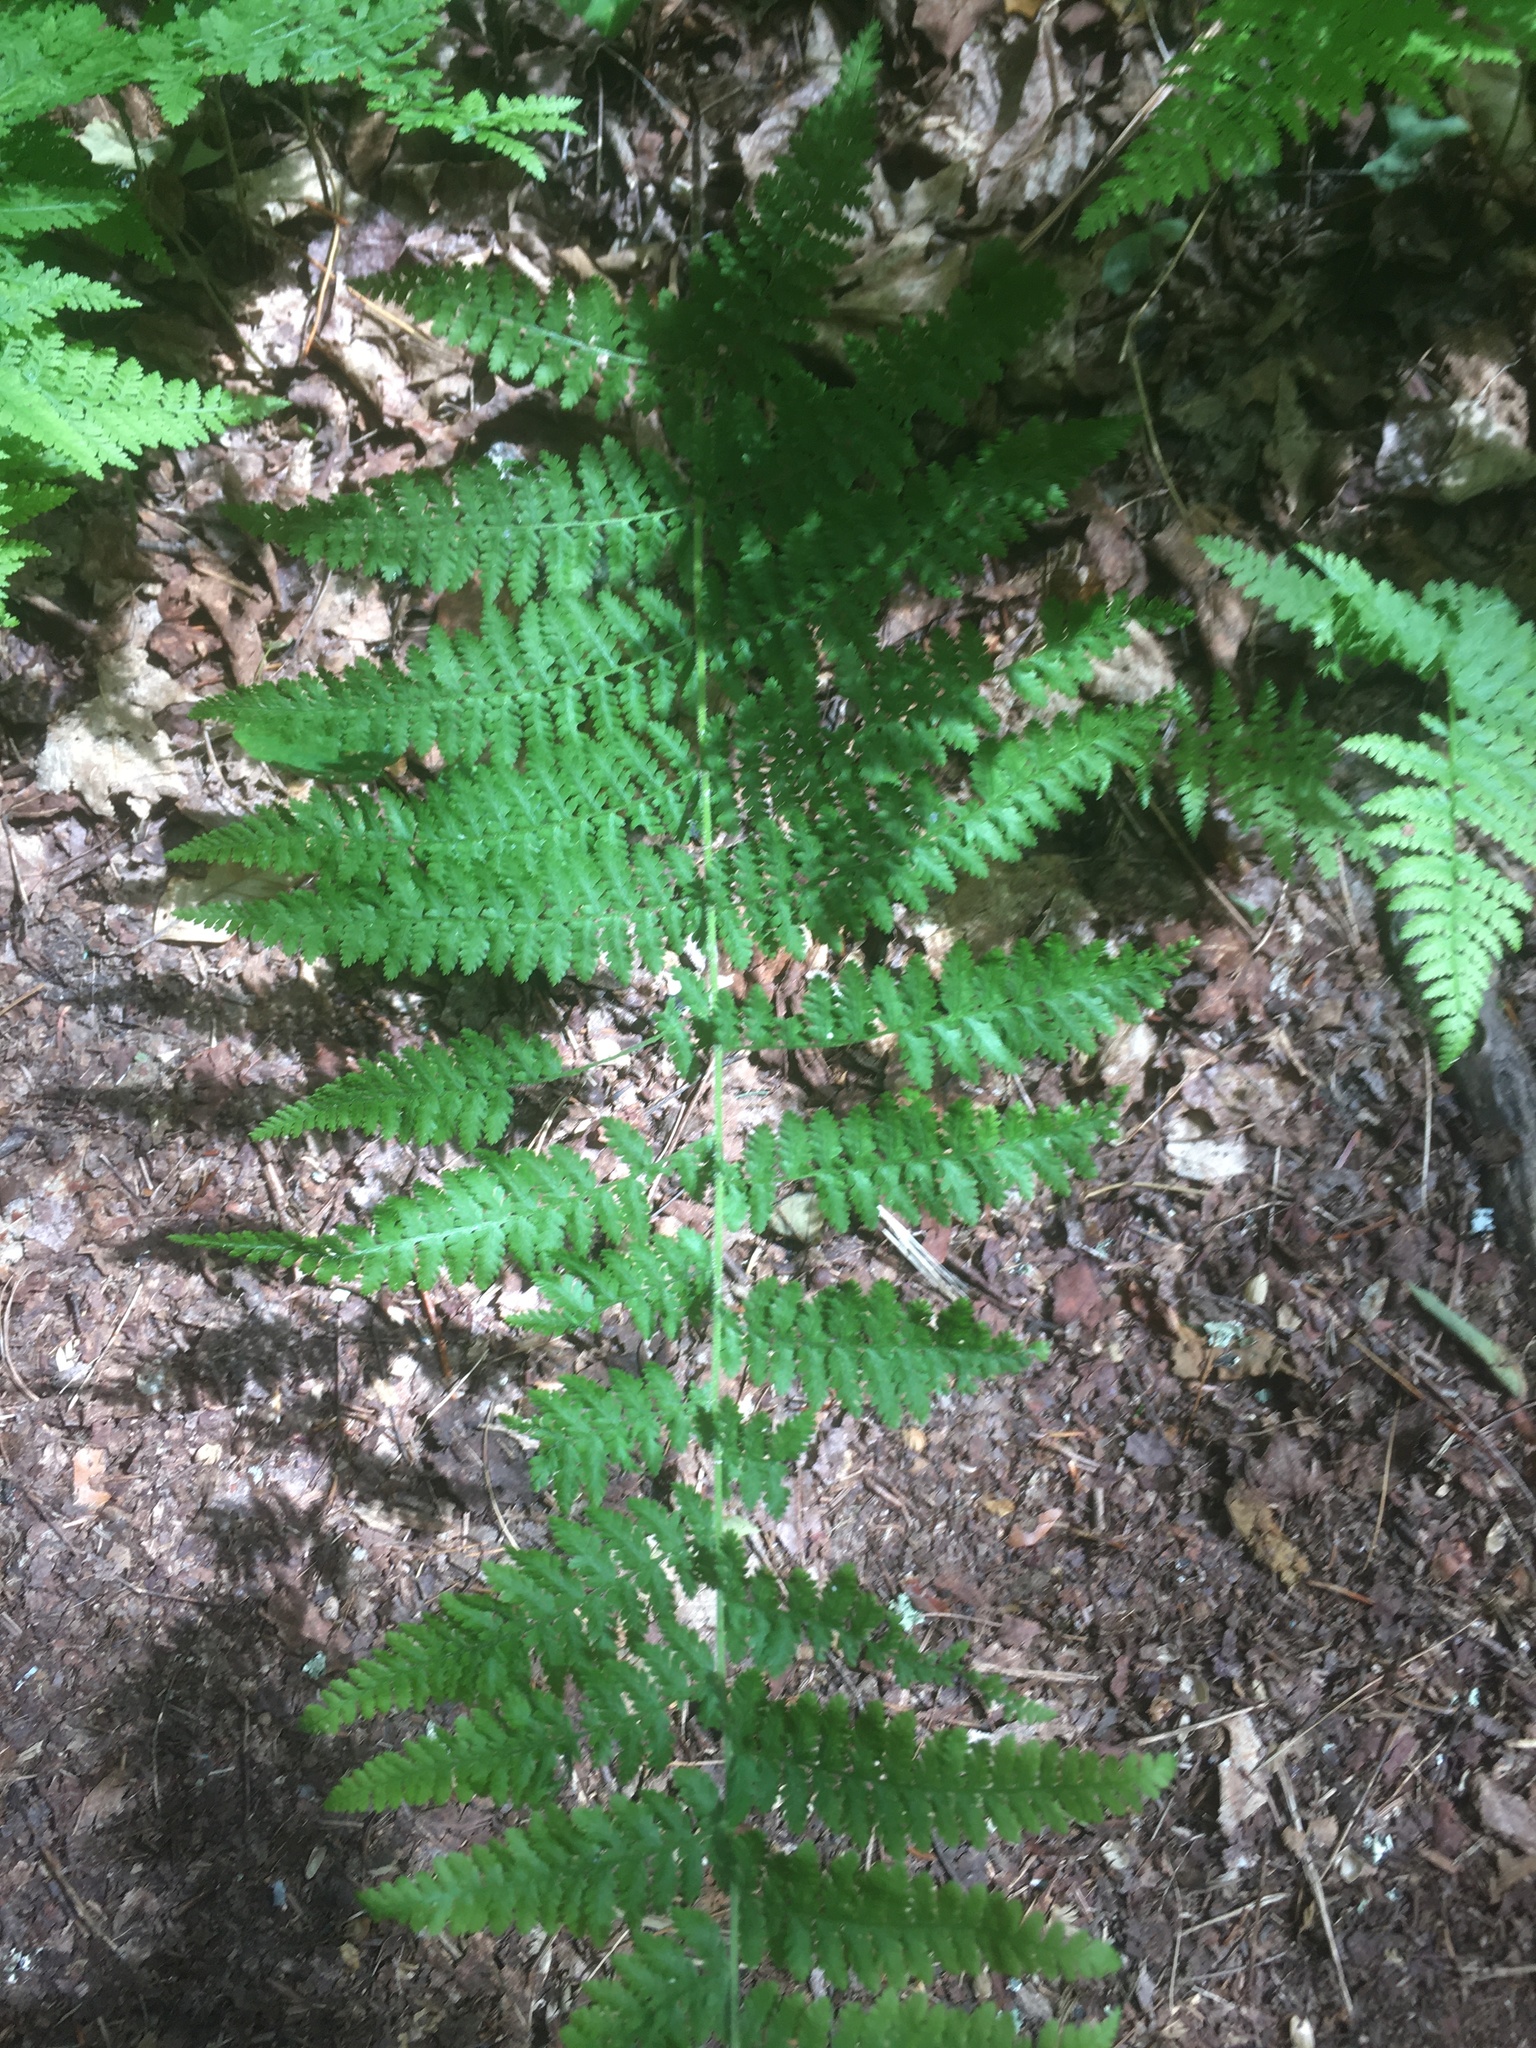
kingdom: Plantae
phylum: Tracheophyta
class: Polypodiopsida
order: Polypodiales
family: Dennstaedtiaceae
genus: Sitobolium
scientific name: Sitobolium punctilobum
